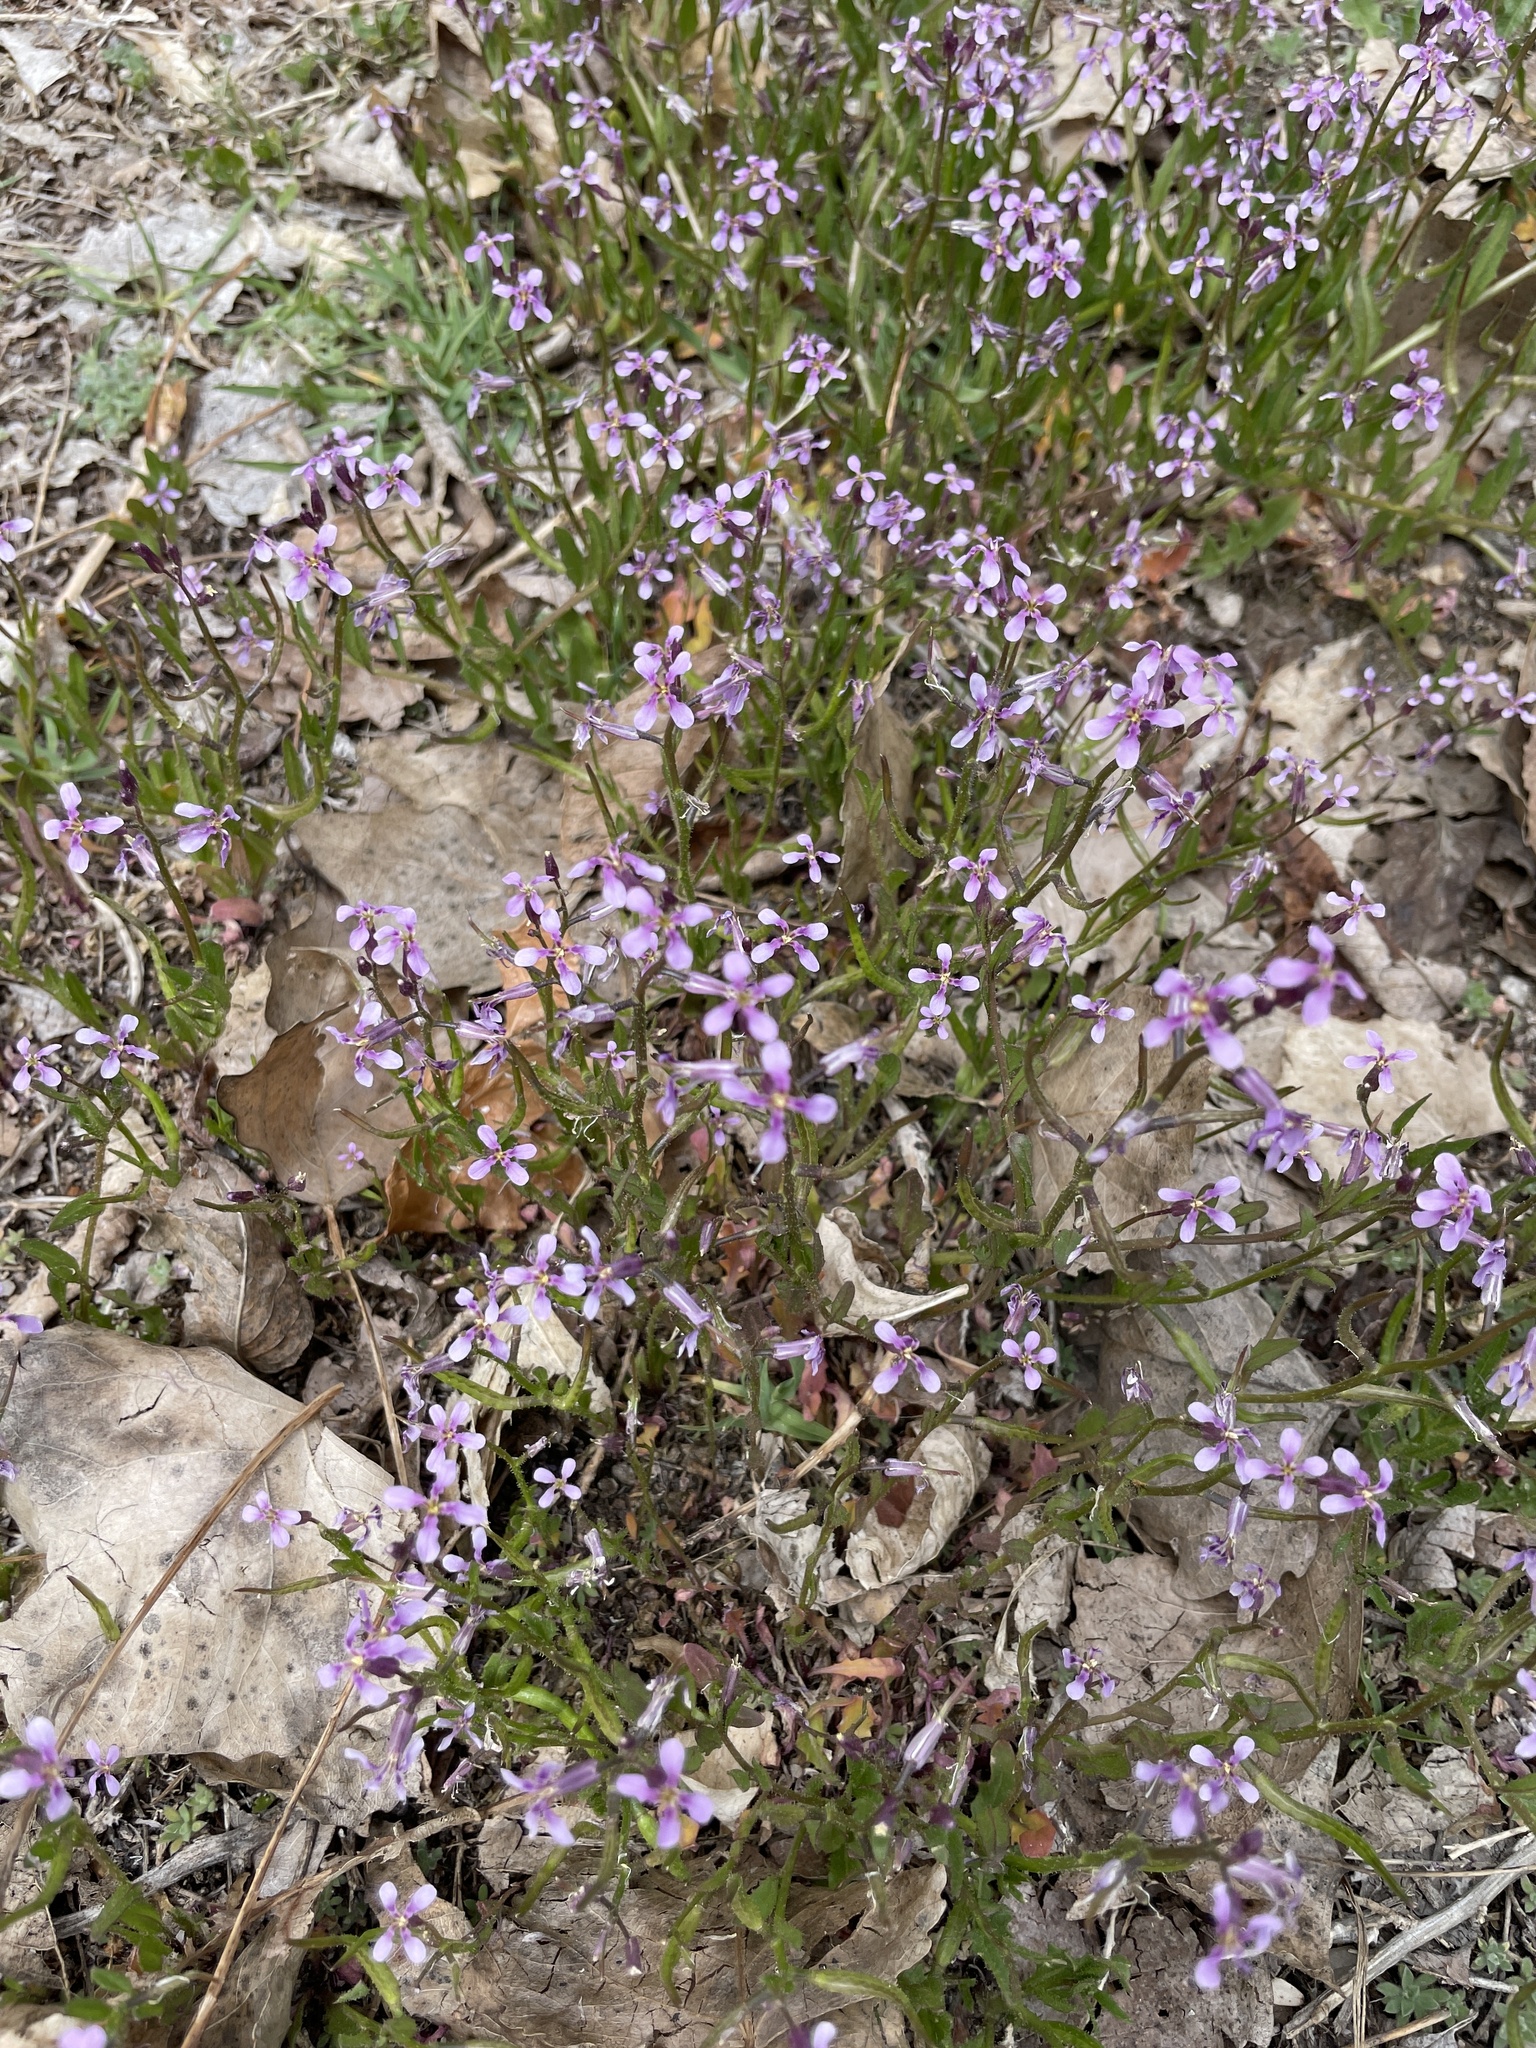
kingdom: Plantae
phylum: Tracheophyta
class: Magnoliopsida
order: Brassicales
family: Brassicaceae
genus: Chorispora
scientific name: Chorispora tenella
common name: Crossflower
